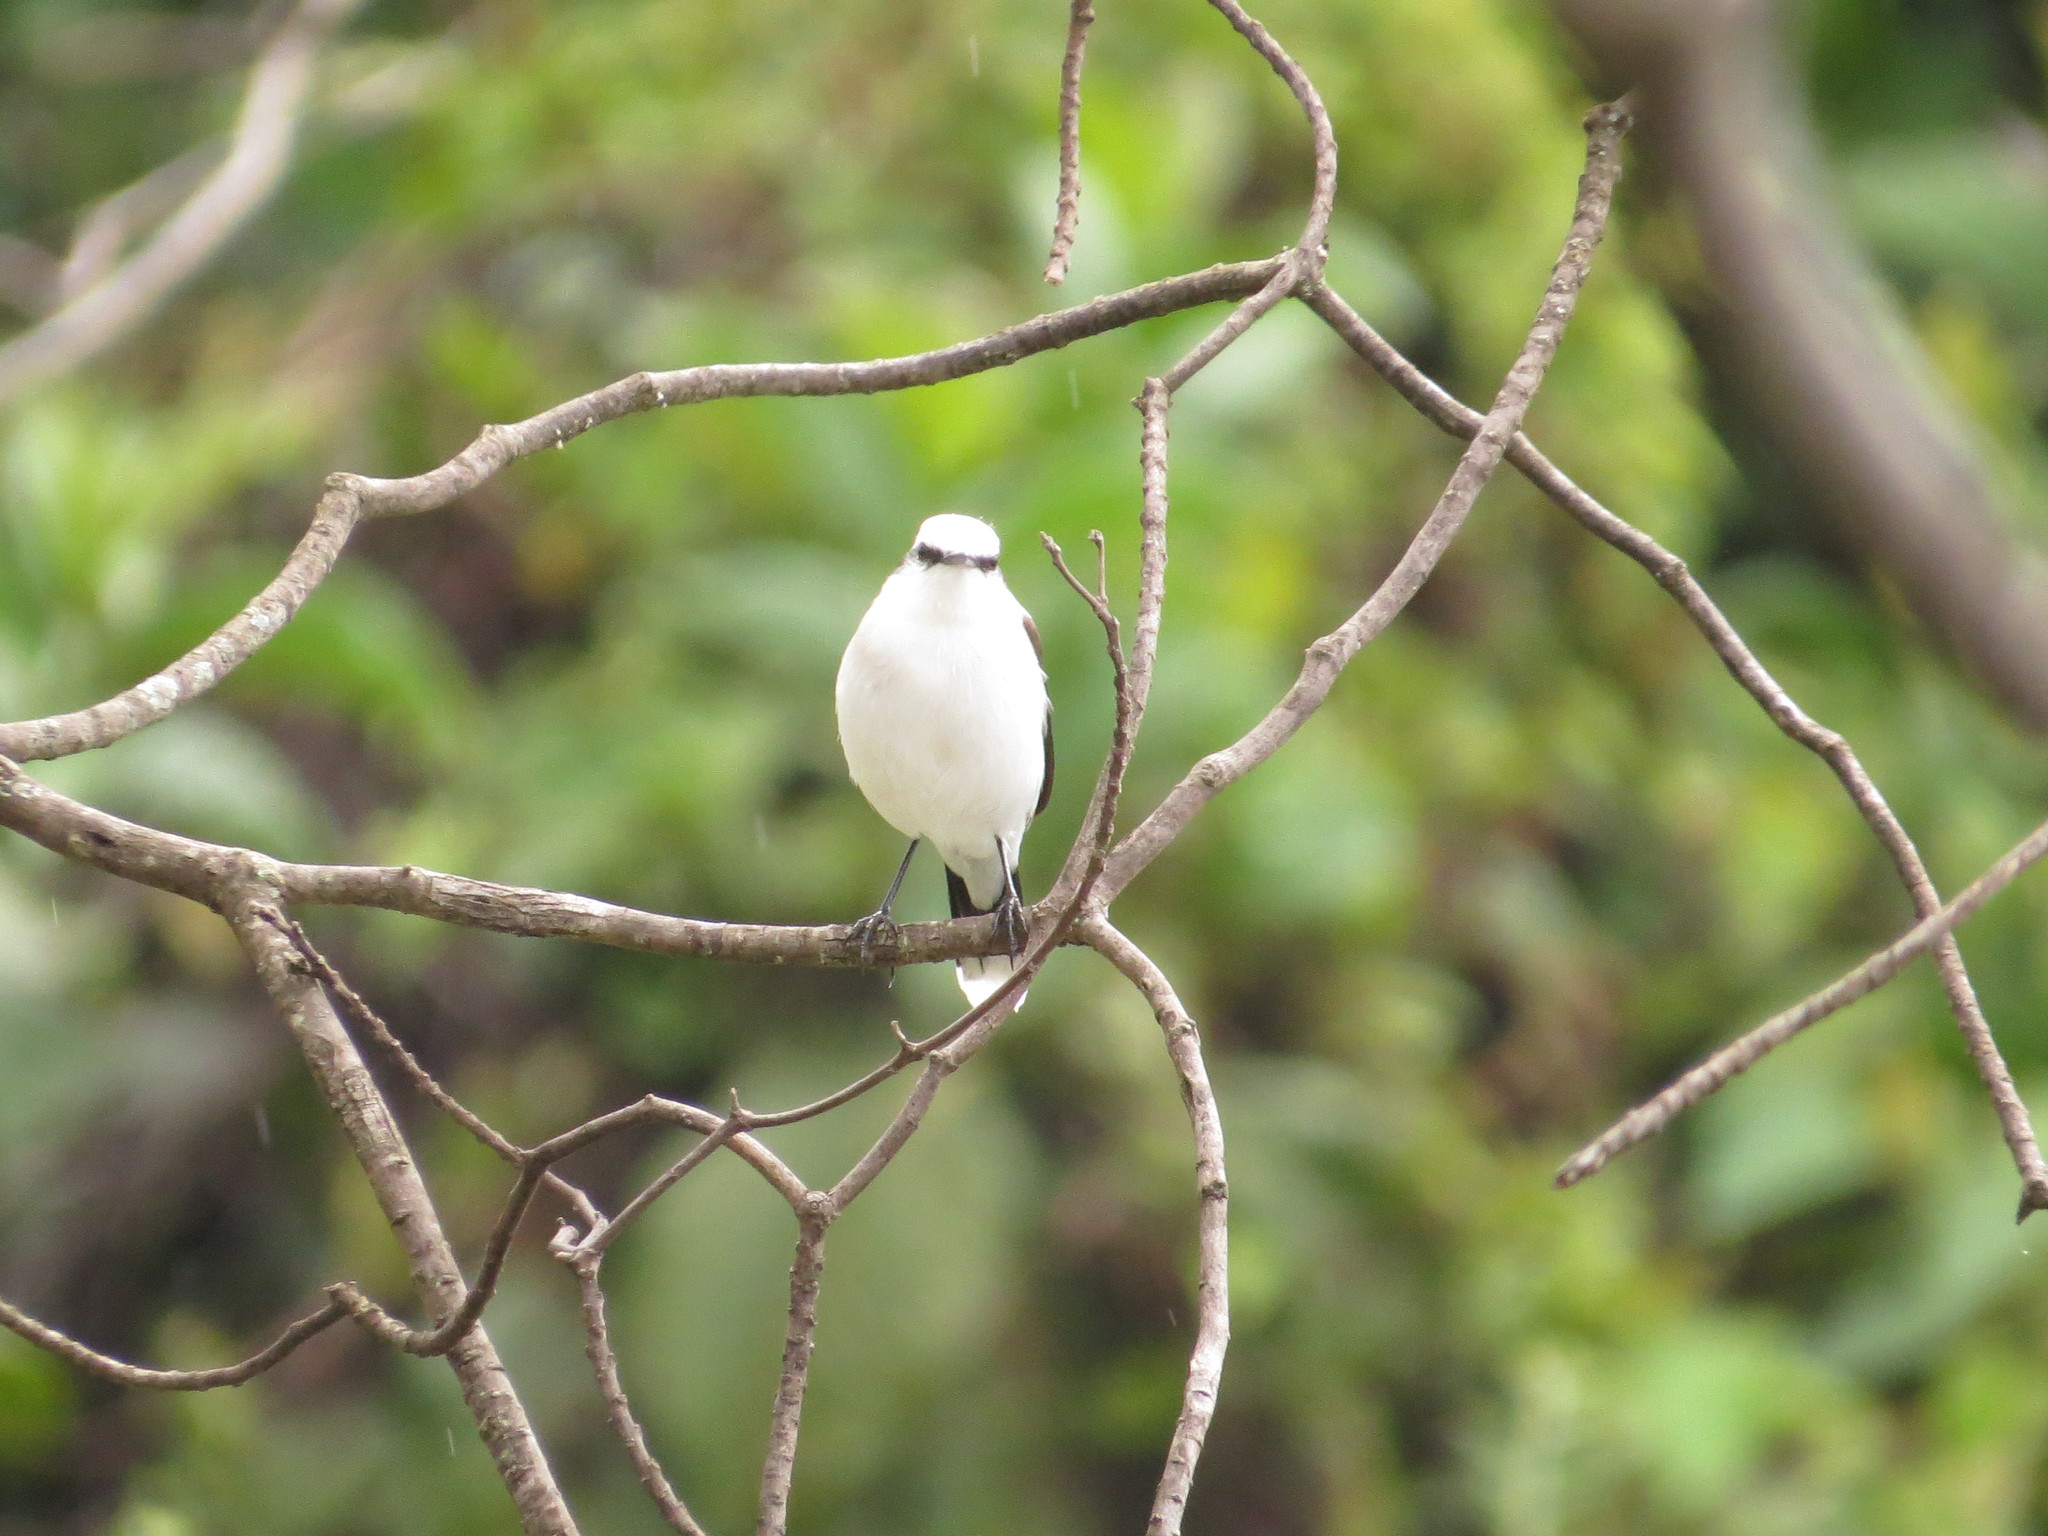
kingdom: Animalia
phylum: Chordata
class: Aves
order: Passeriformes
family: Tyrannidae
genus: Fluvicola
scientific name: Fluvicola nengeta
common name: Masked water tyrant
